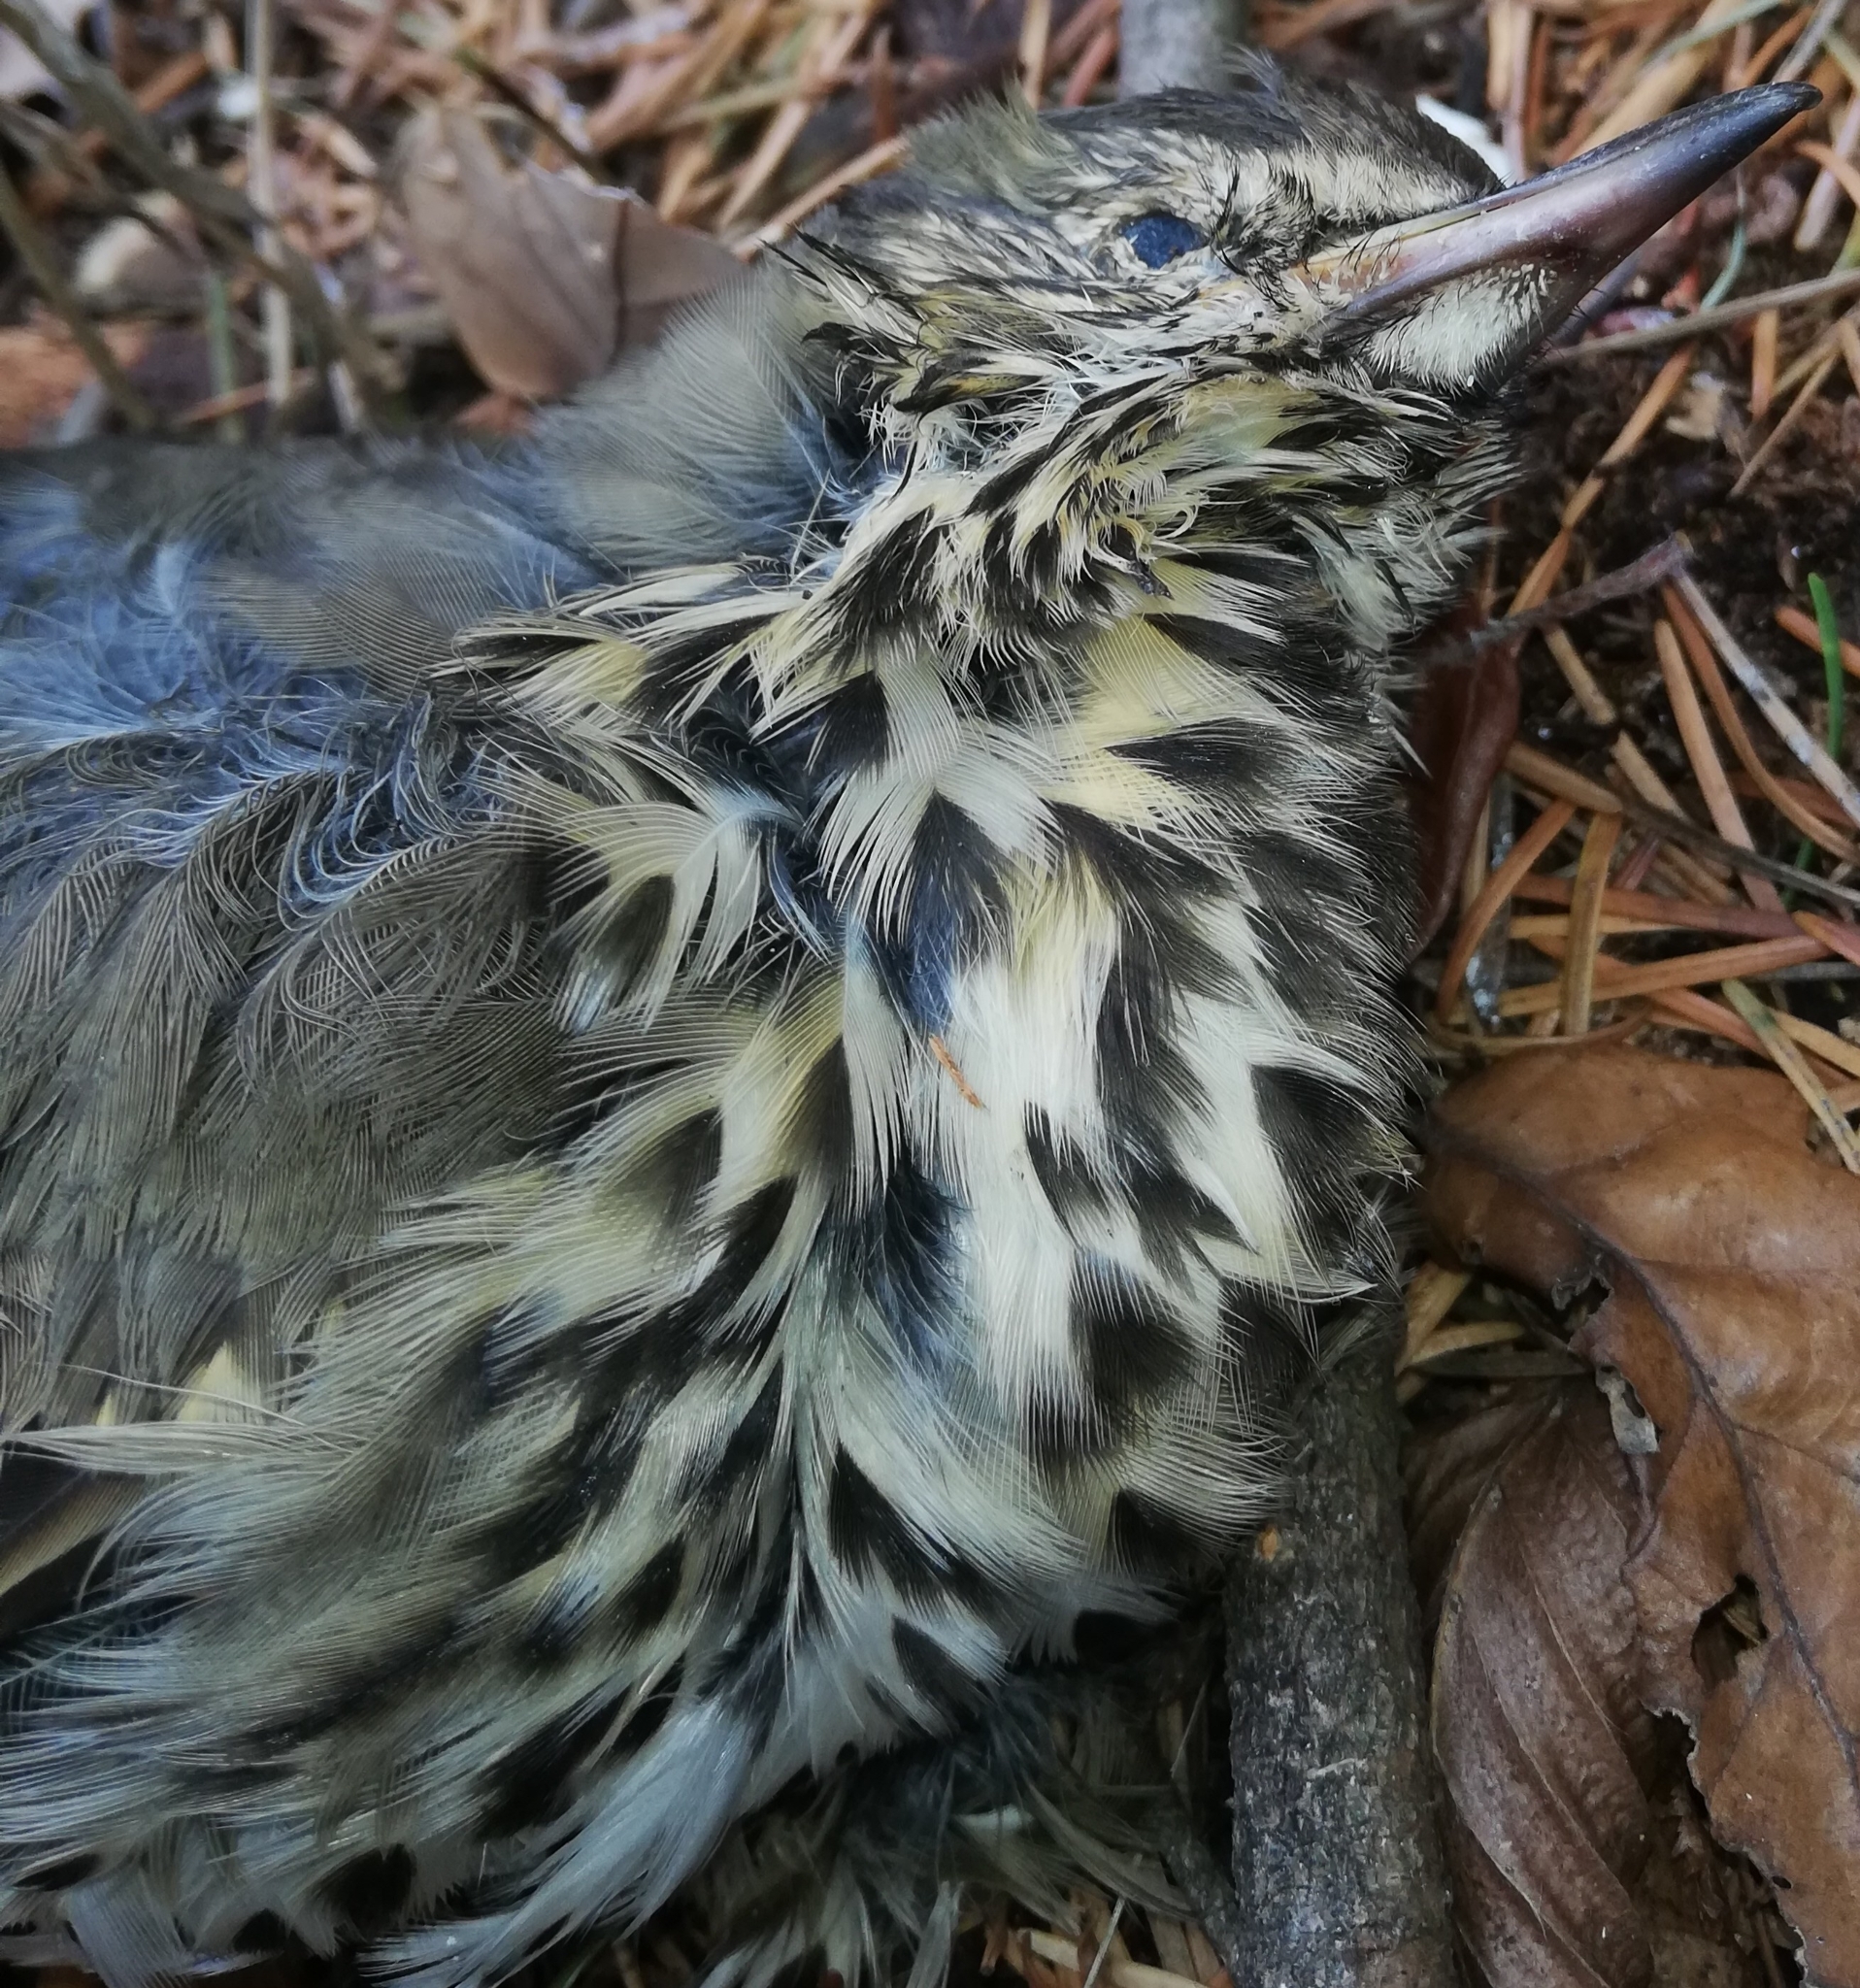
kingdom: Animalia
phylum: Chordata
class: Aves
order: Passeriformes
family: Turdidae
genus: Turdus
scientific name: Turdus philomelos
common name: Song thrush
